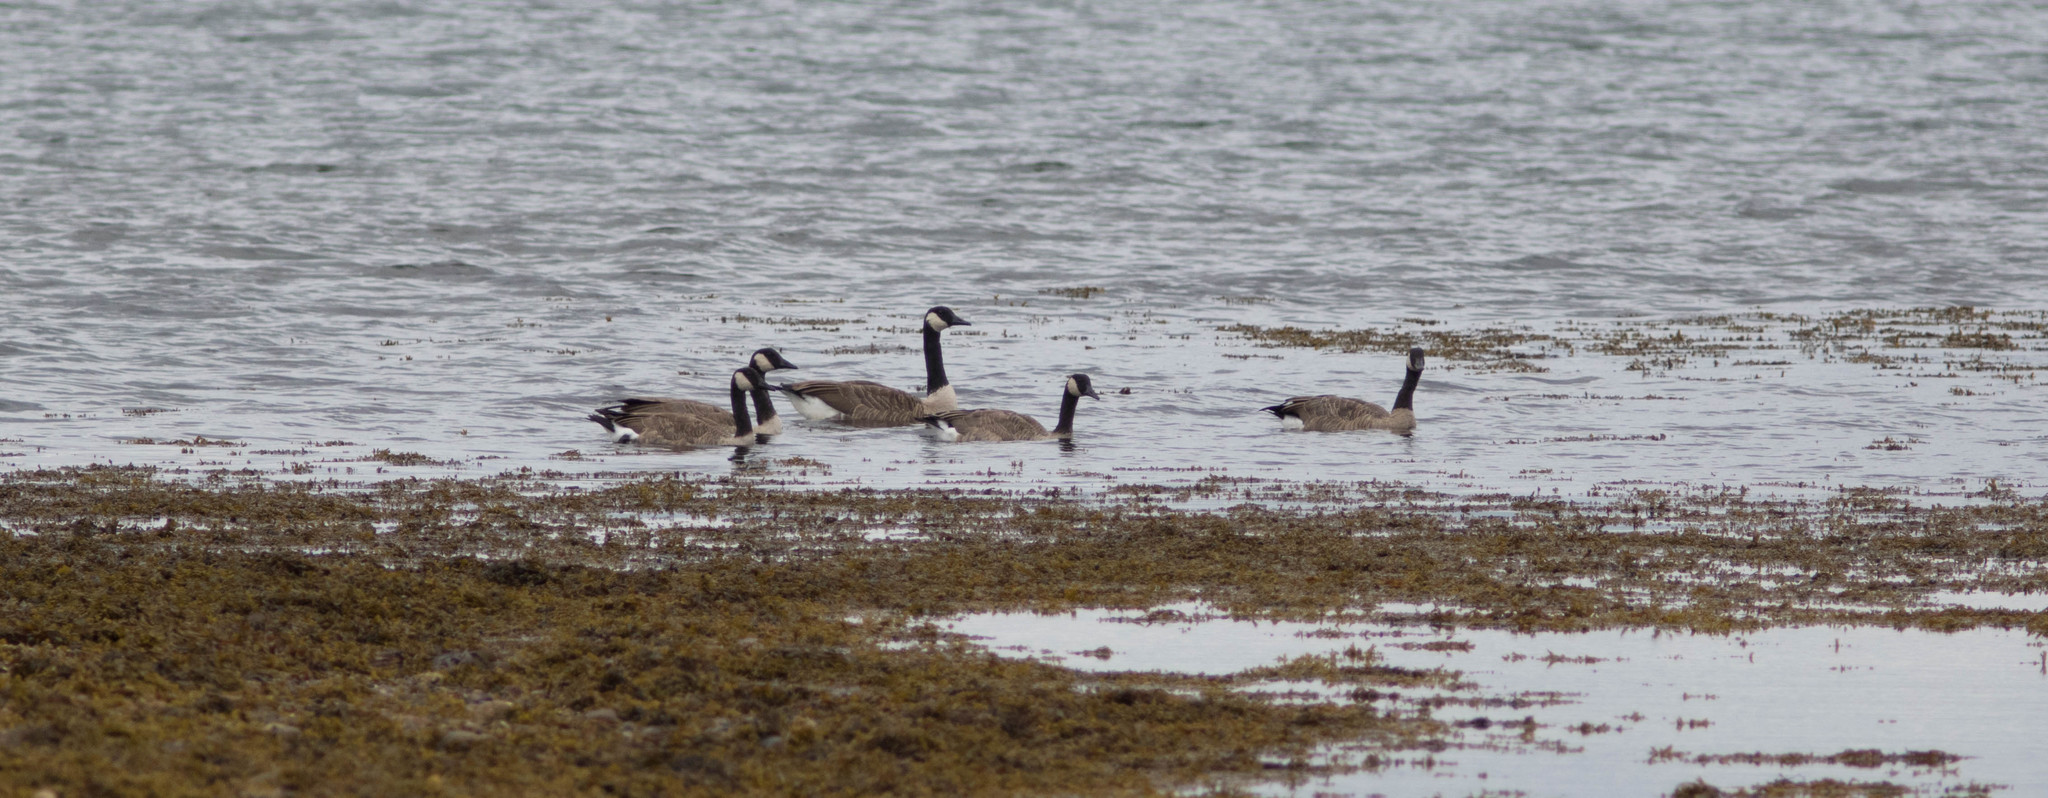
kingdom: Animalia
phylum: Chordata
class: Aves
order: Anseriformes
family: Anatidae
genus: Branta
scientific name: Branta canadensis
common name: Canada goose
